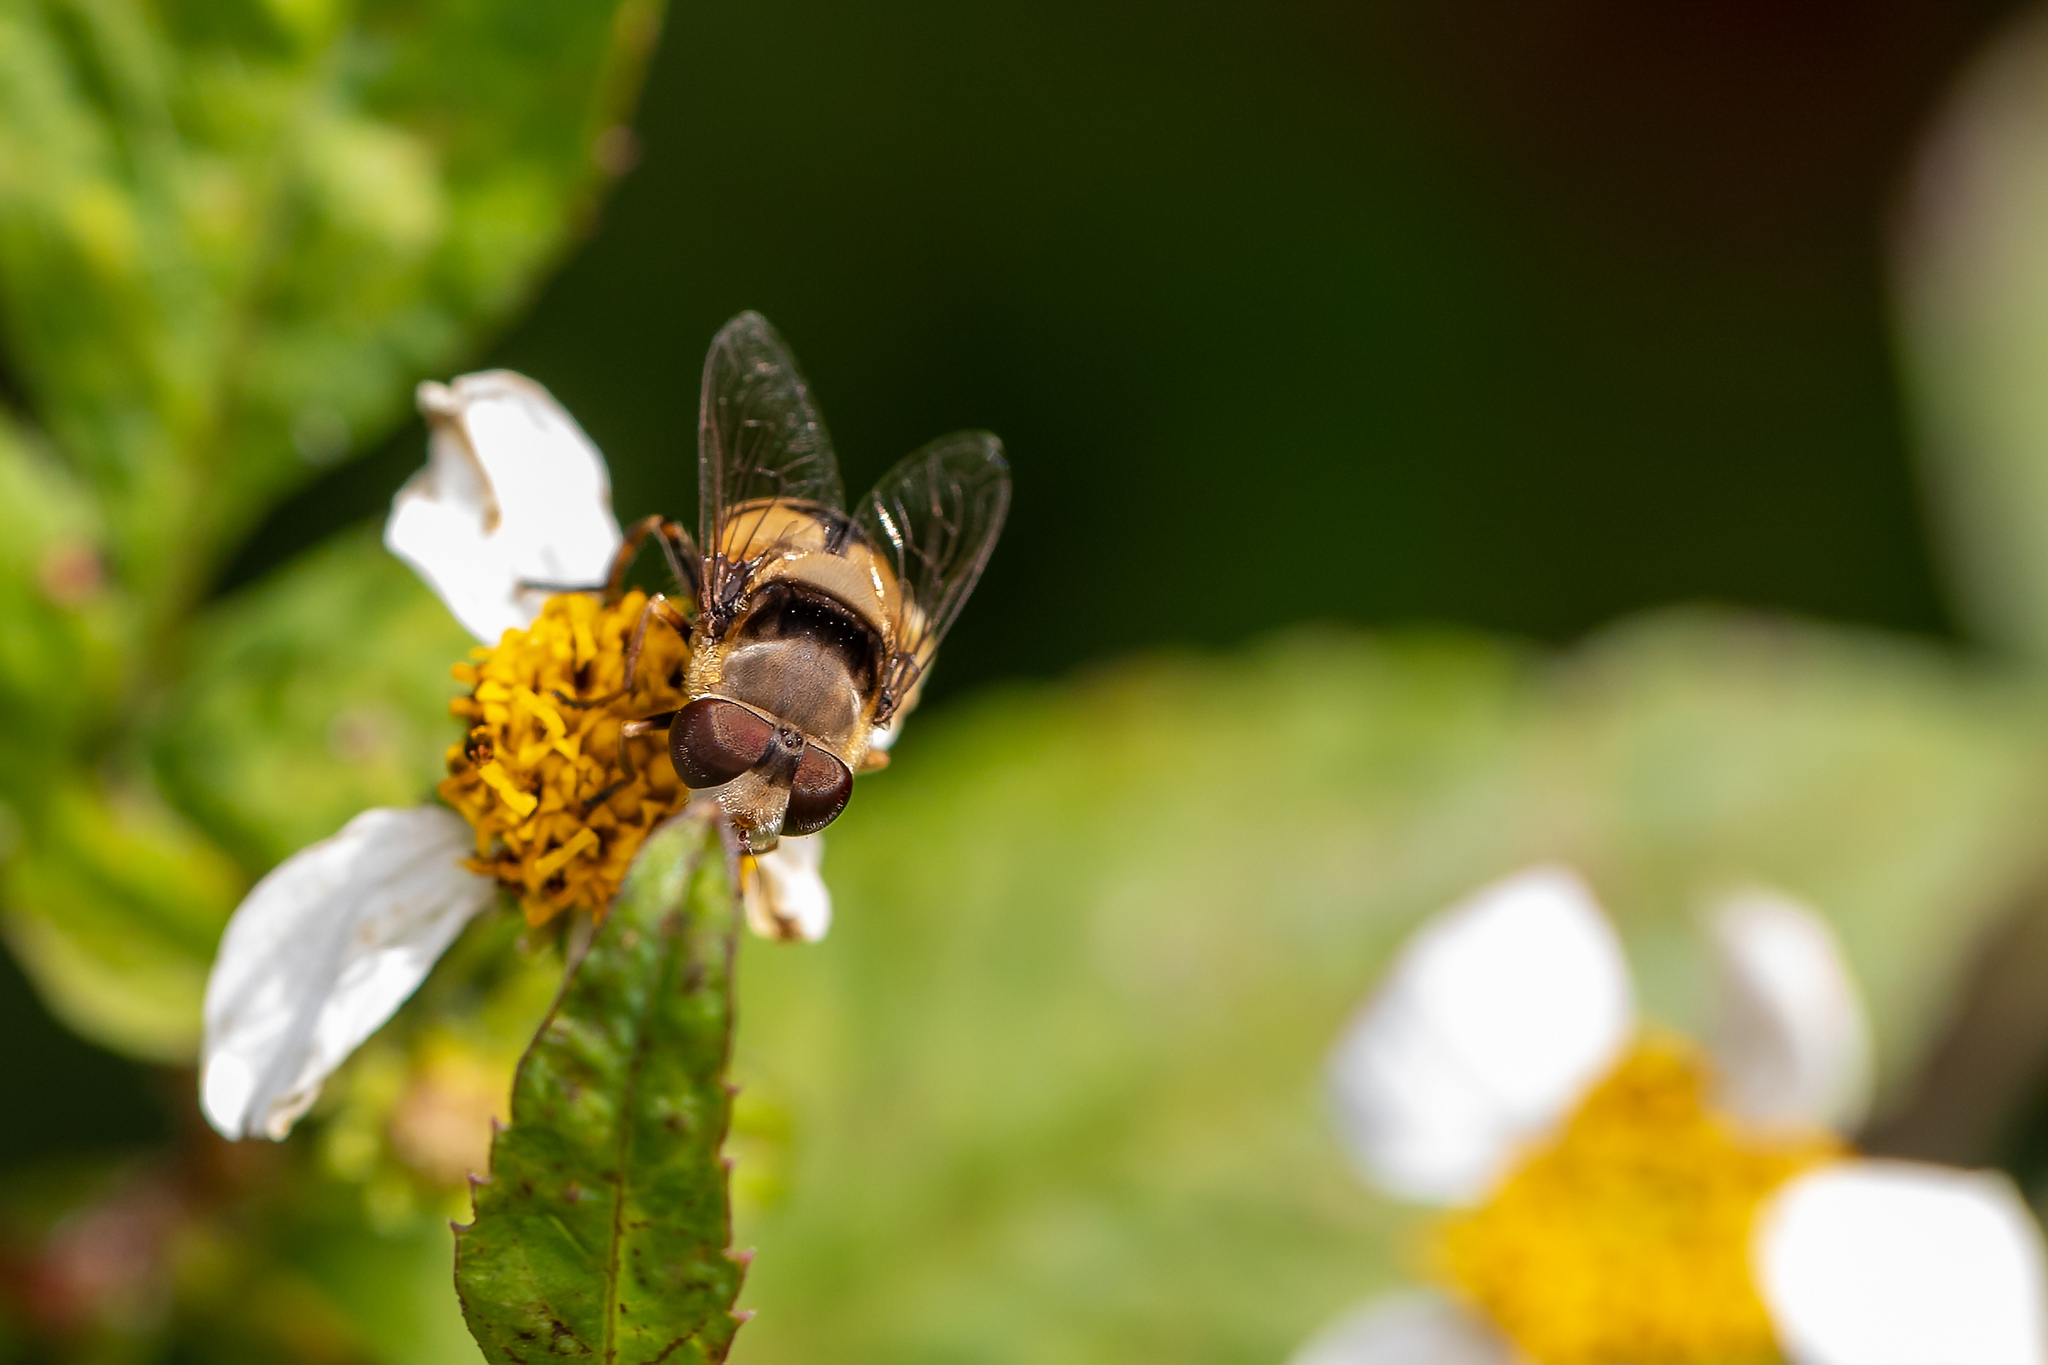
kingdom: Animalia
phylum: Arthropoda
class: Insecta
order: Diptera
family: Syrphidae
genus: Palpada
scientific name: Palpada pusilla
